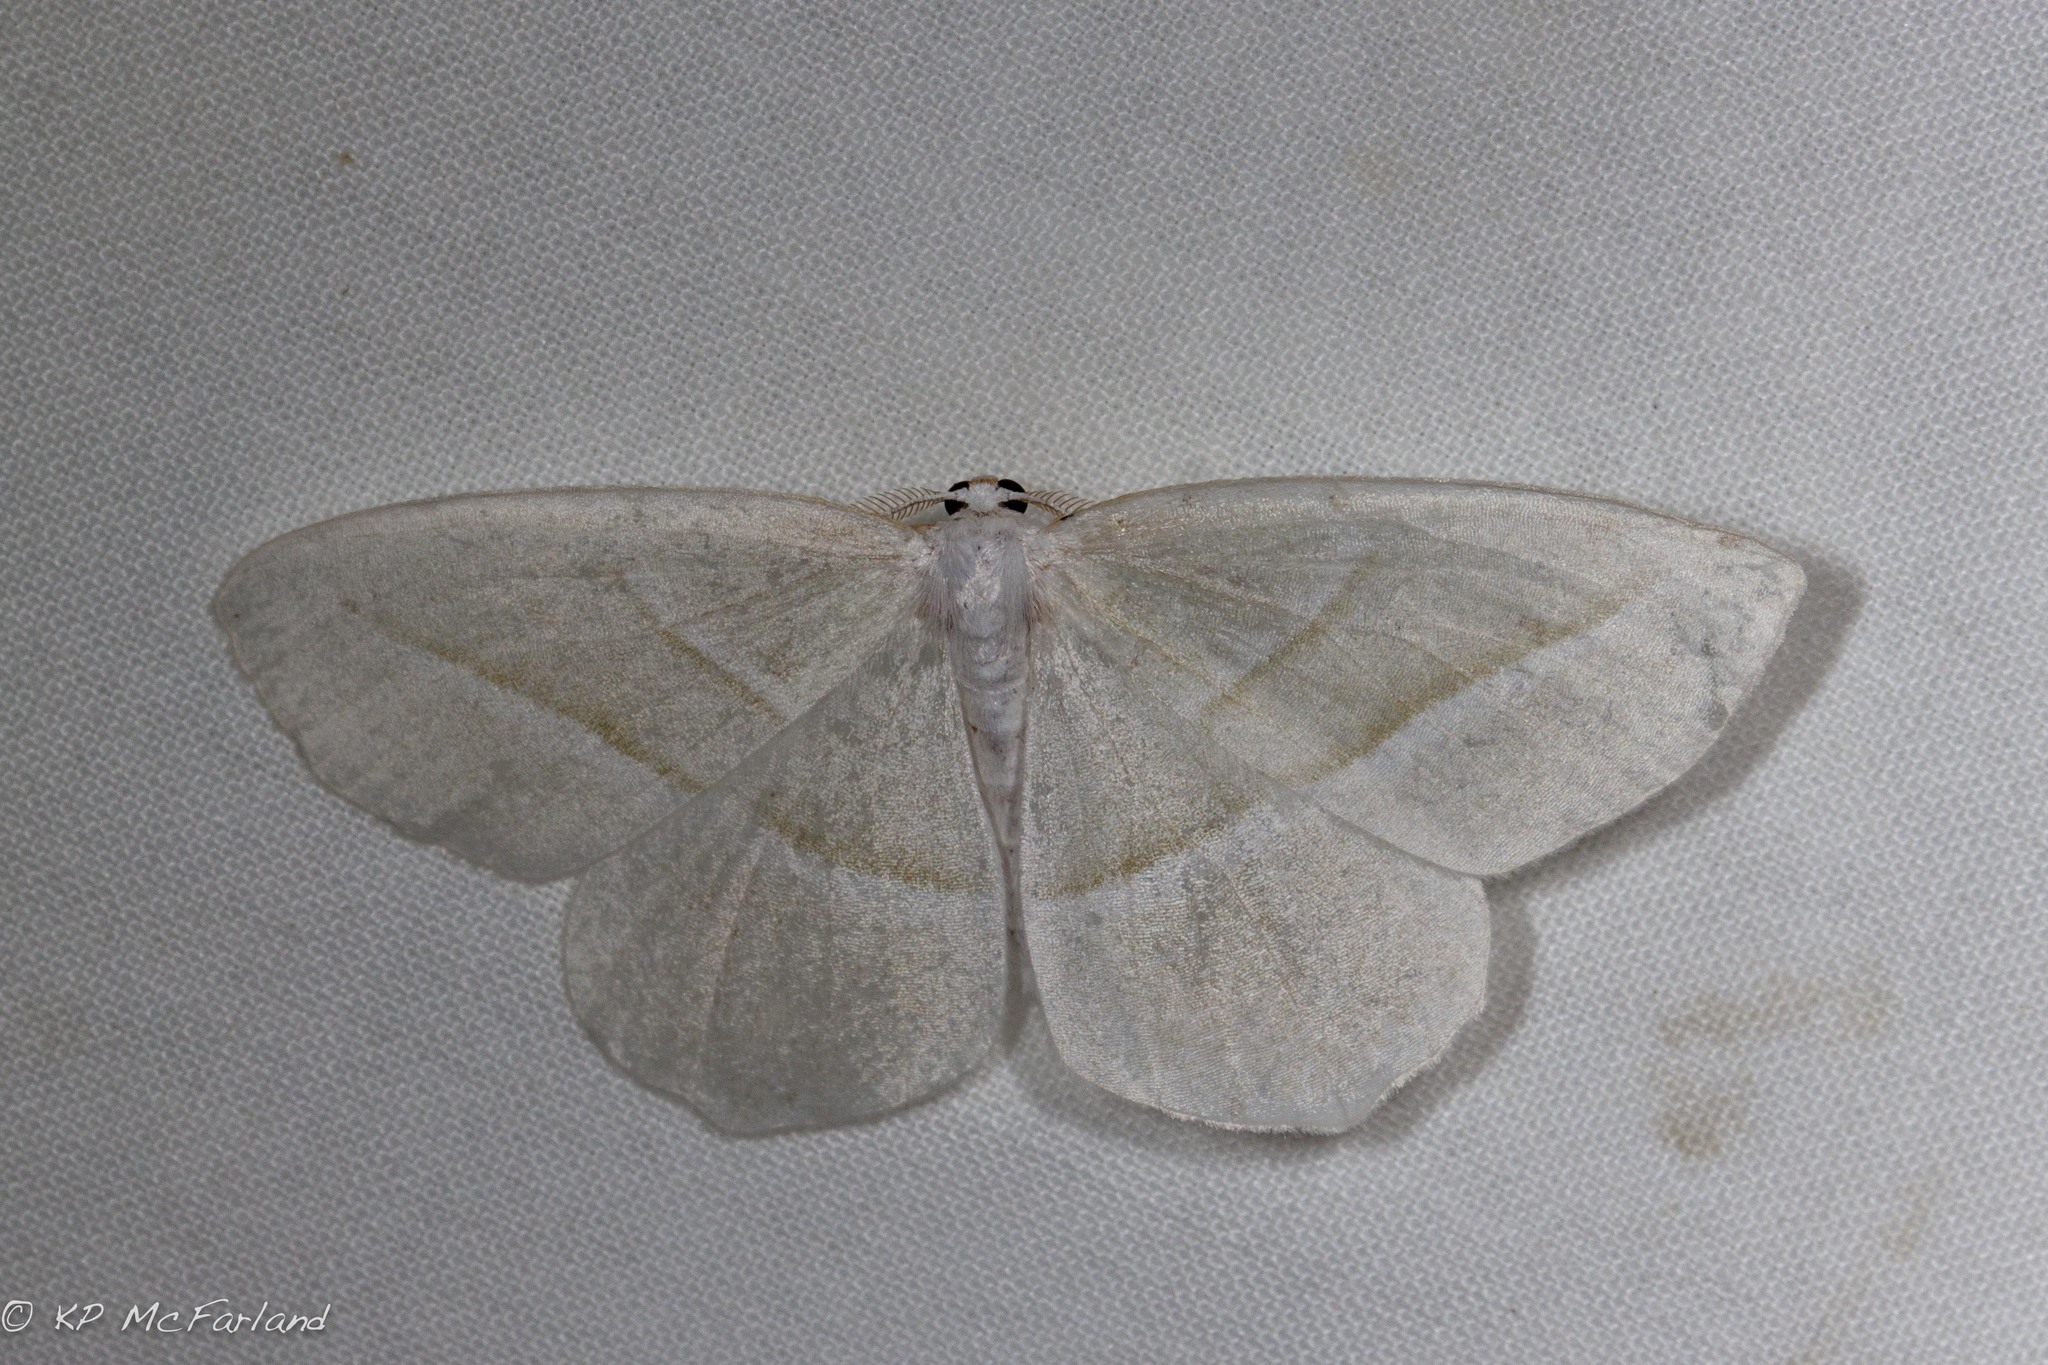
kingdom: Animalia
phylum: Arthropoda
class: Insecta
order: Lepidoptera
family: Geometridae
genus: Campaea
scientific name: Campaea perlata
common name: Fringed looper
